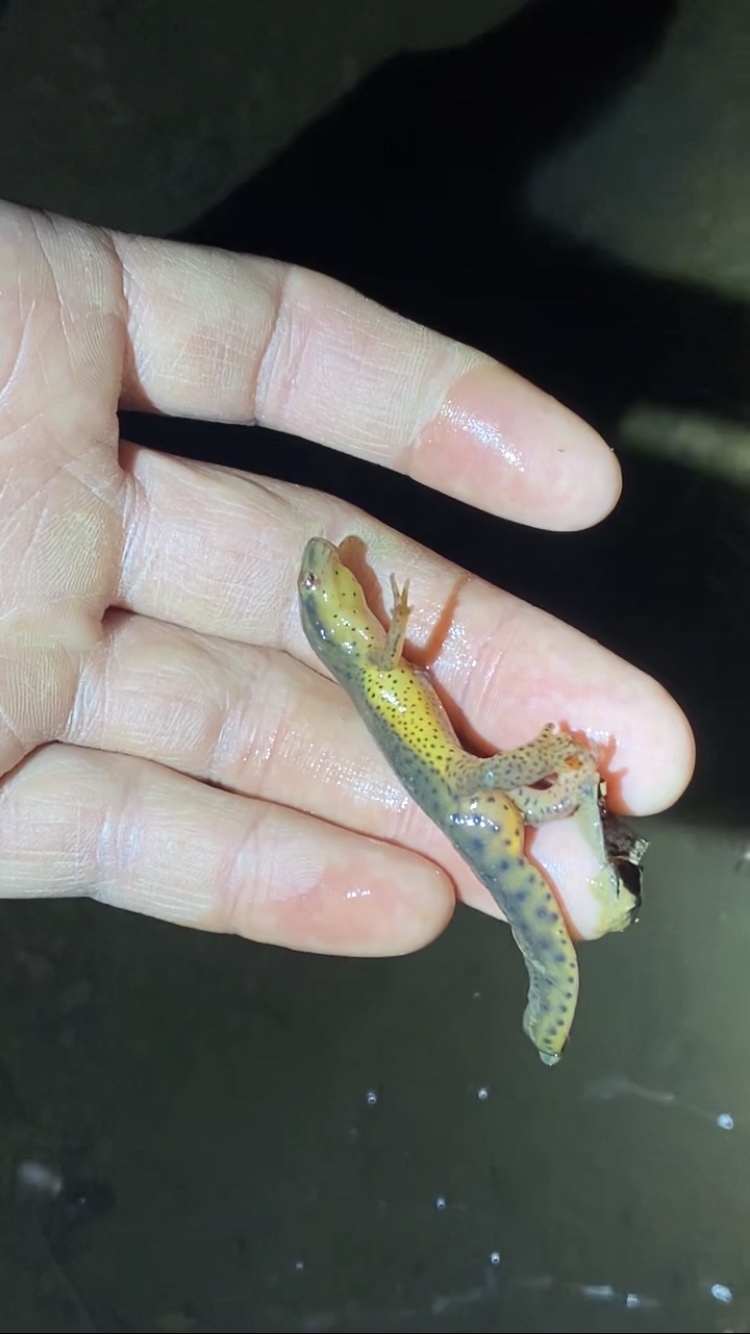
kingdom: Animalia
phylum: Chordata
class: Amphibia
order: Caudata
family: Salamandridae
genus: Notophthalmus
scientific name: Notophthalmus viridescens
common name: Eastern newt
